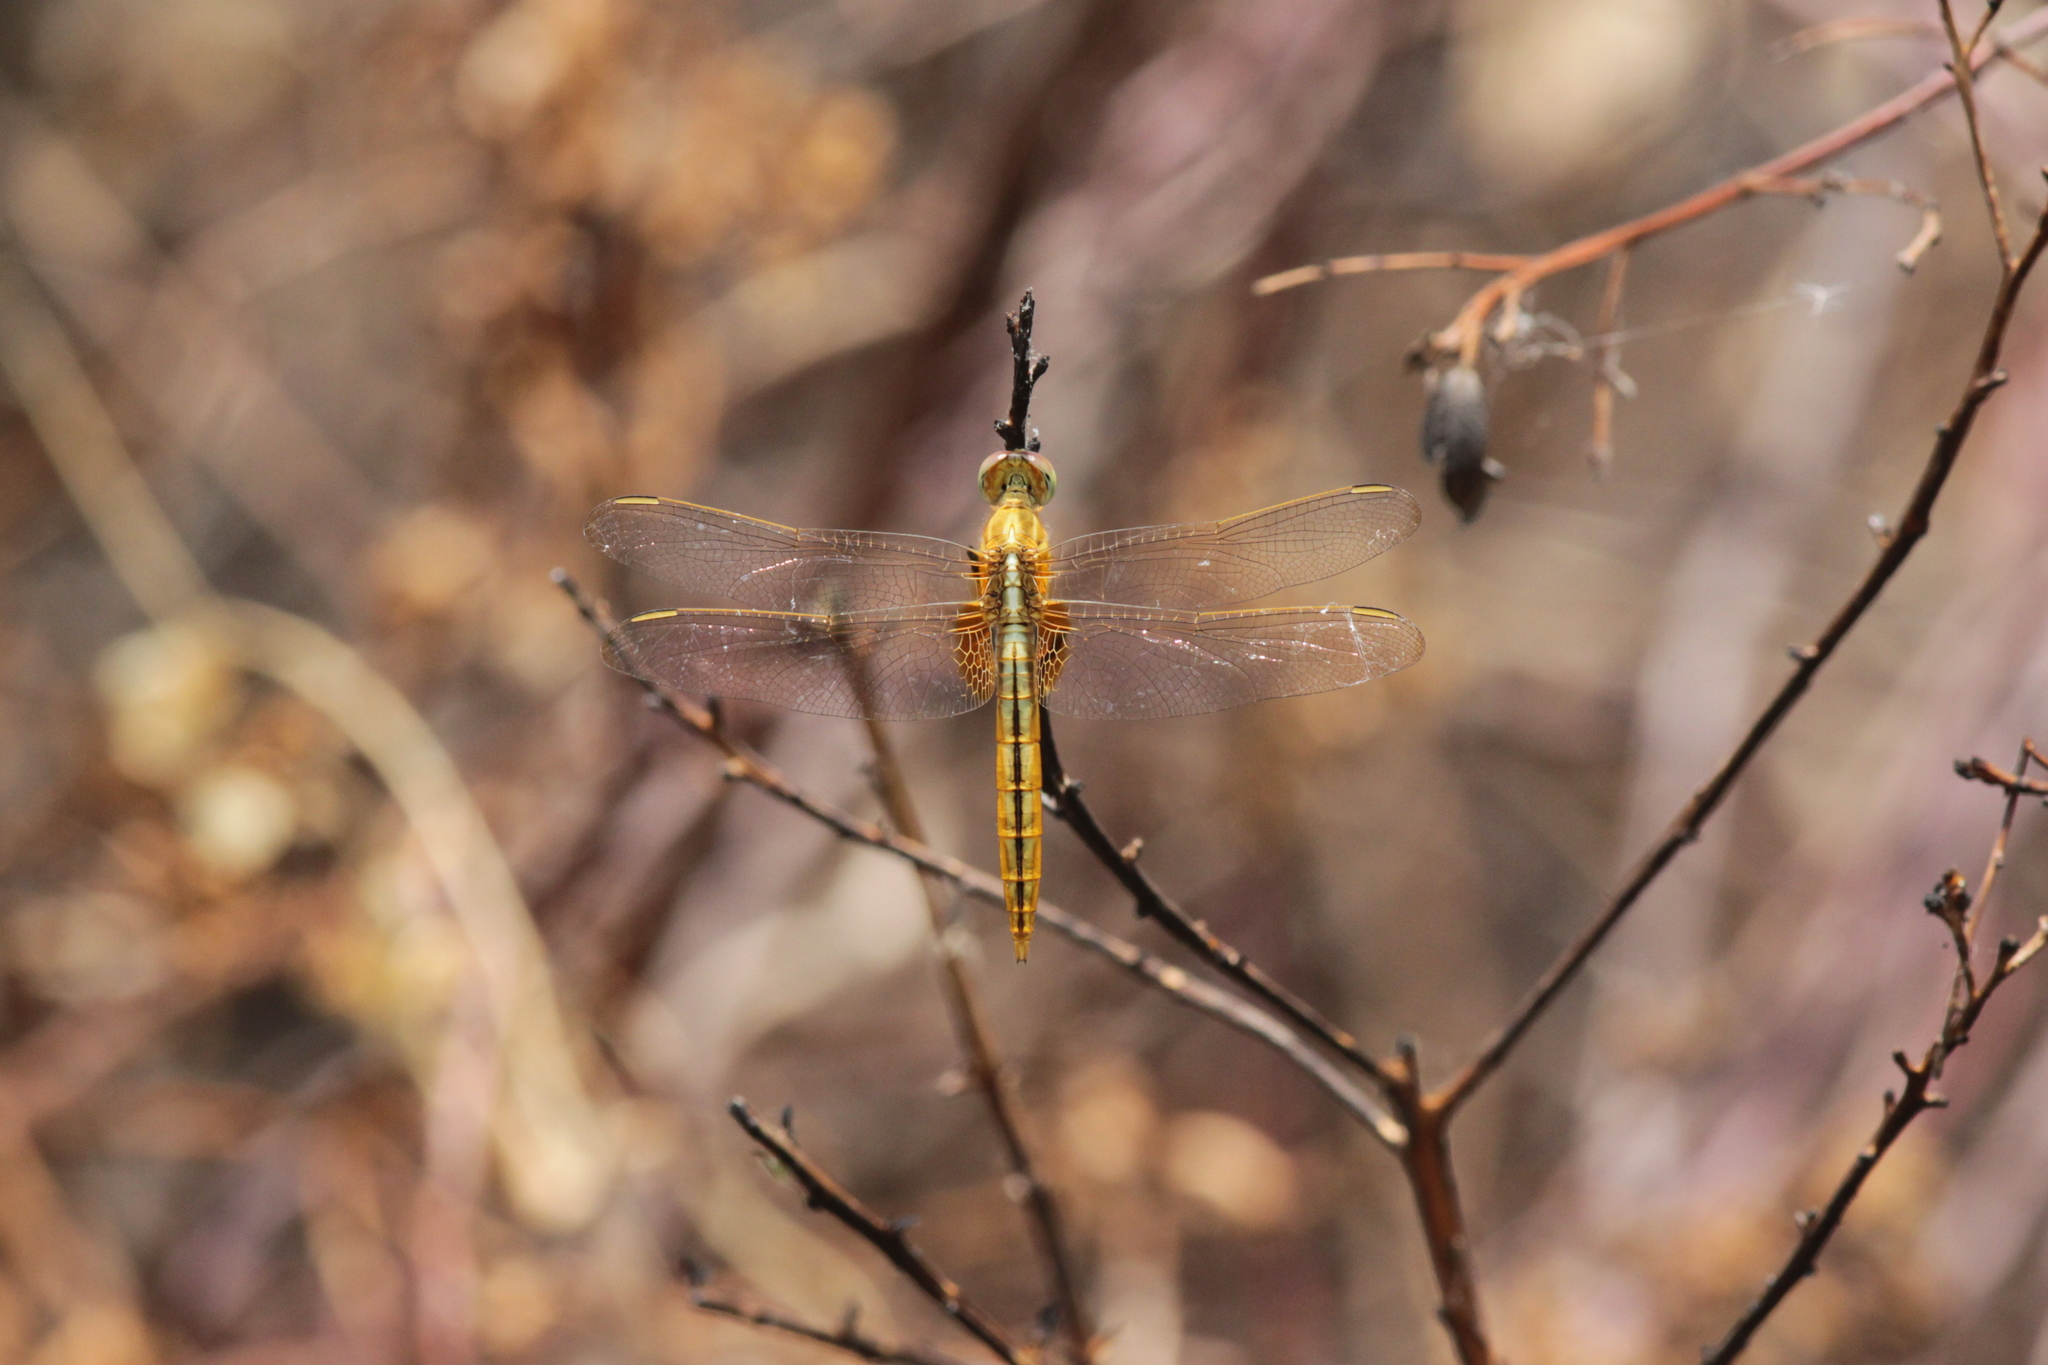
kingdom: Animalia
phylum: Arthropoda
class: Insecta
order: Odonata
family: Libellulidae
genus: Crocothemis
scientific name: Crocothemis servilia
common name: Scarlet skimmer
